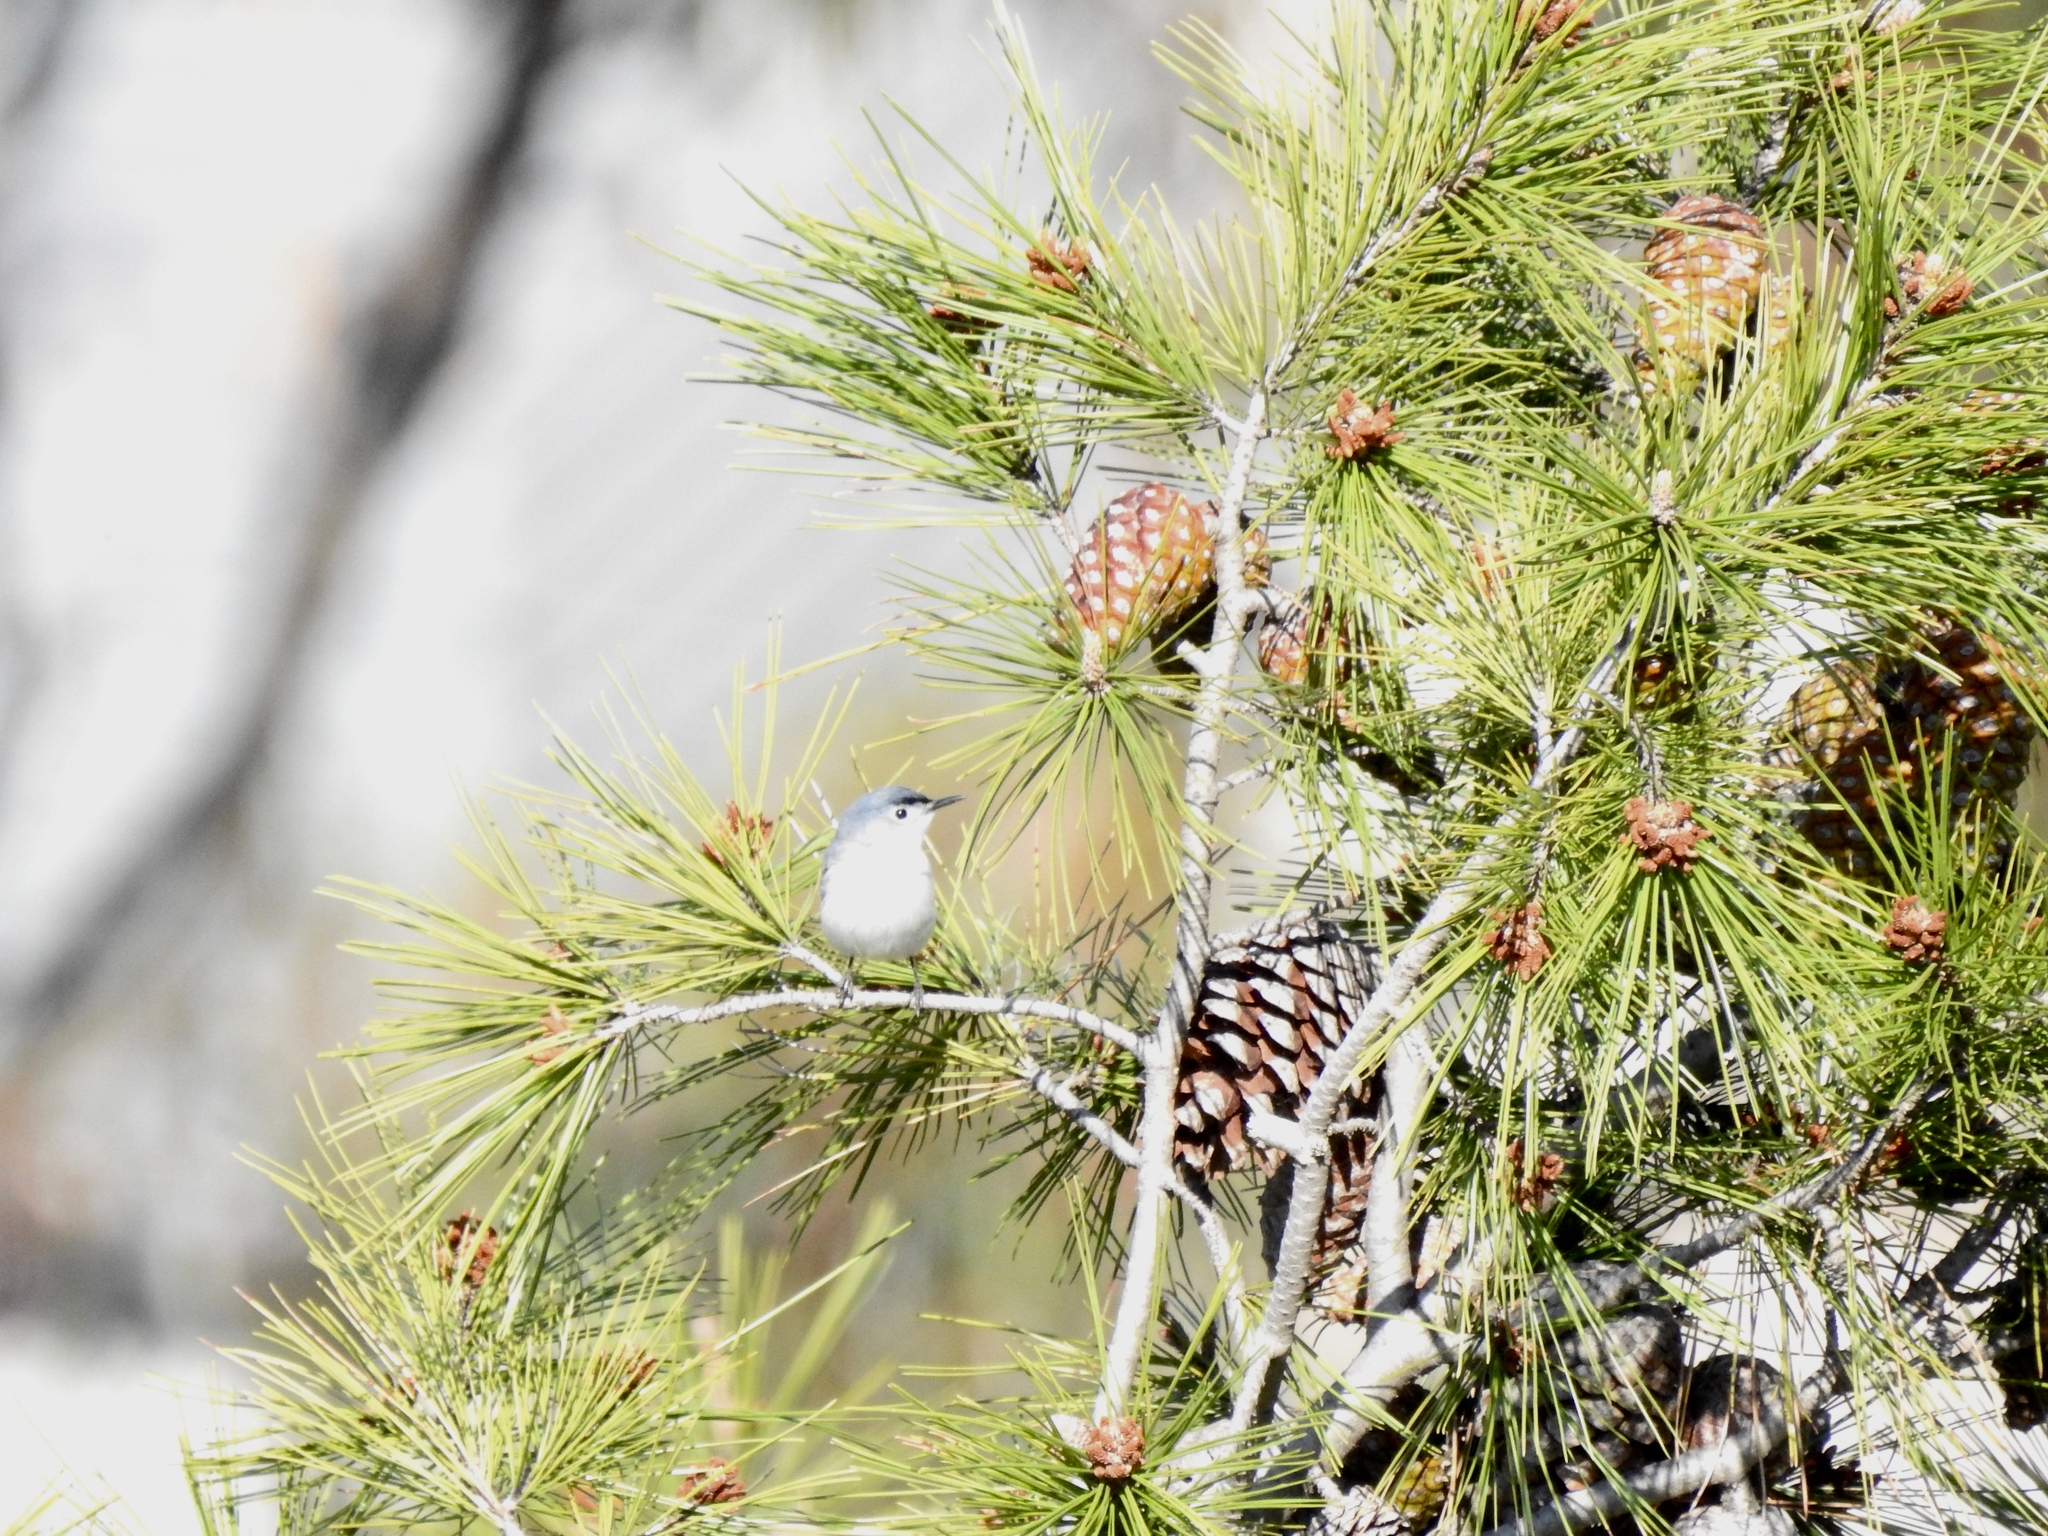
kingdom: Animalia
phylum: Chordata
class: Aves
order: Passeriformes
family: Polioptilidae
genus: Polioptila
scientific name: Polioptila caerulea
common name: Blue-gray gnatcatcher
